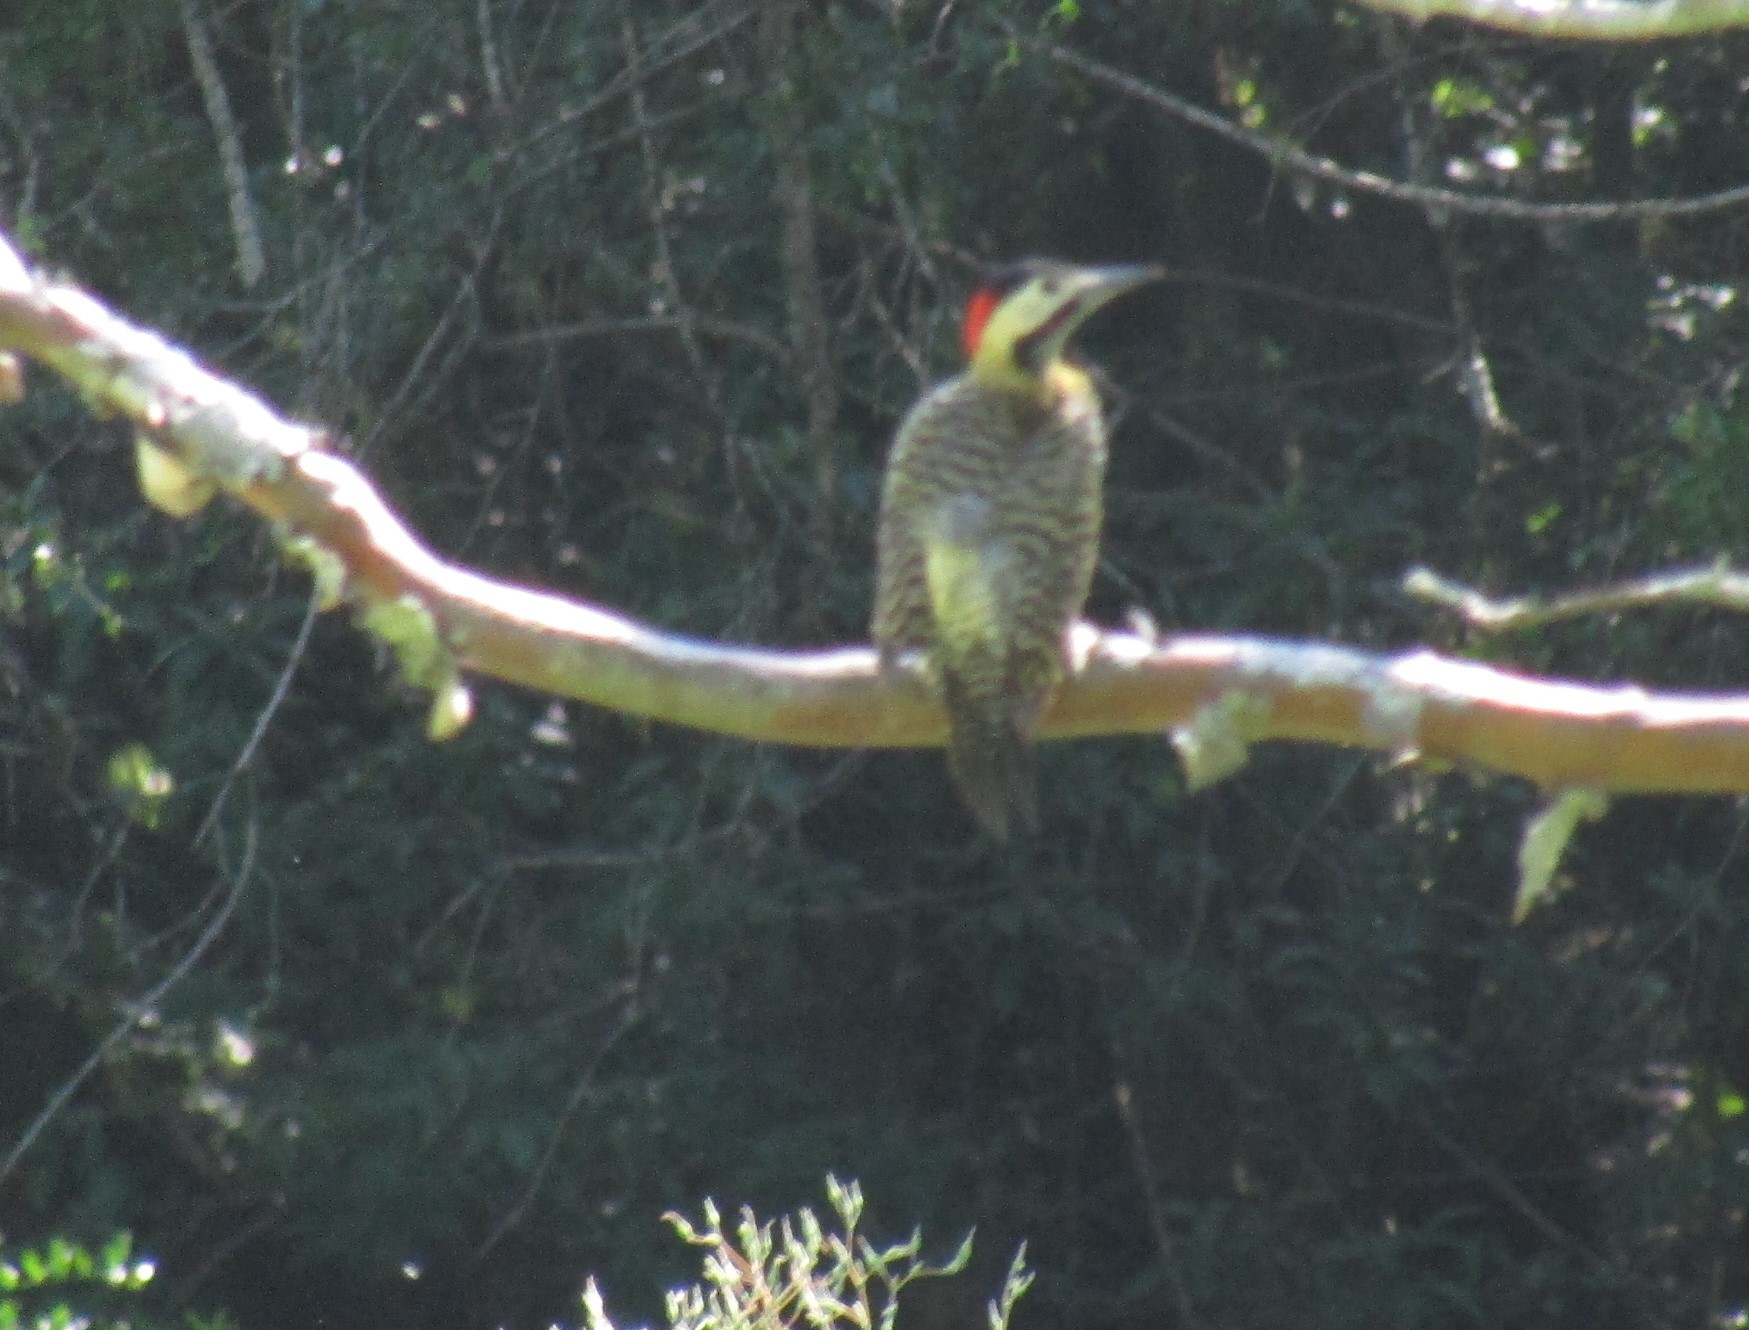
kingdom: Animalia
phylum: Chordata
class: Aves
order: Piciformes
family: Picidae
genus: Colaptes
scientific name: Colaptes melanochloros
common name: Green-barred woodpecker
